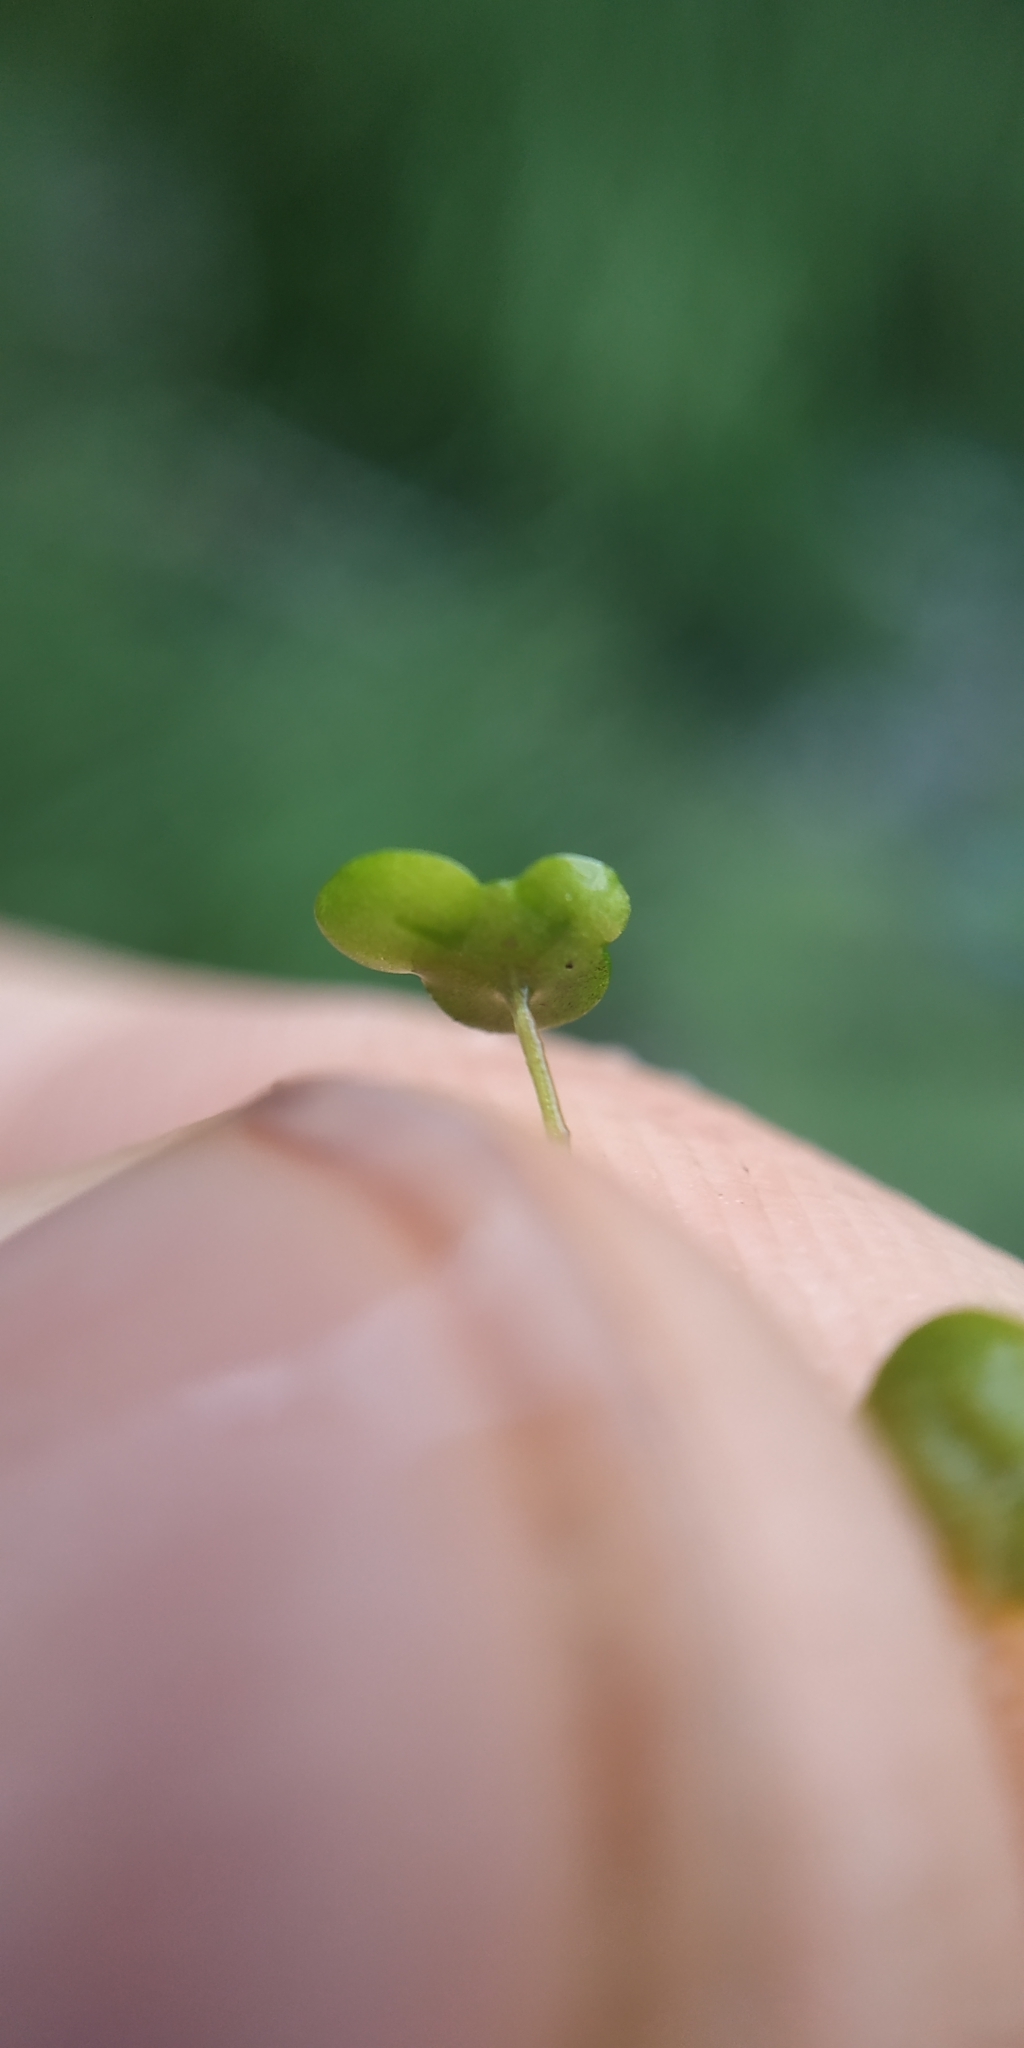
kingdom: Plantae
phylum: Tracheophyta
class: Liliopsida
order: Alismatales
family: Araceae
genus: Lemna
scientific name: Lemna gibba
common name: Fat duckweed
